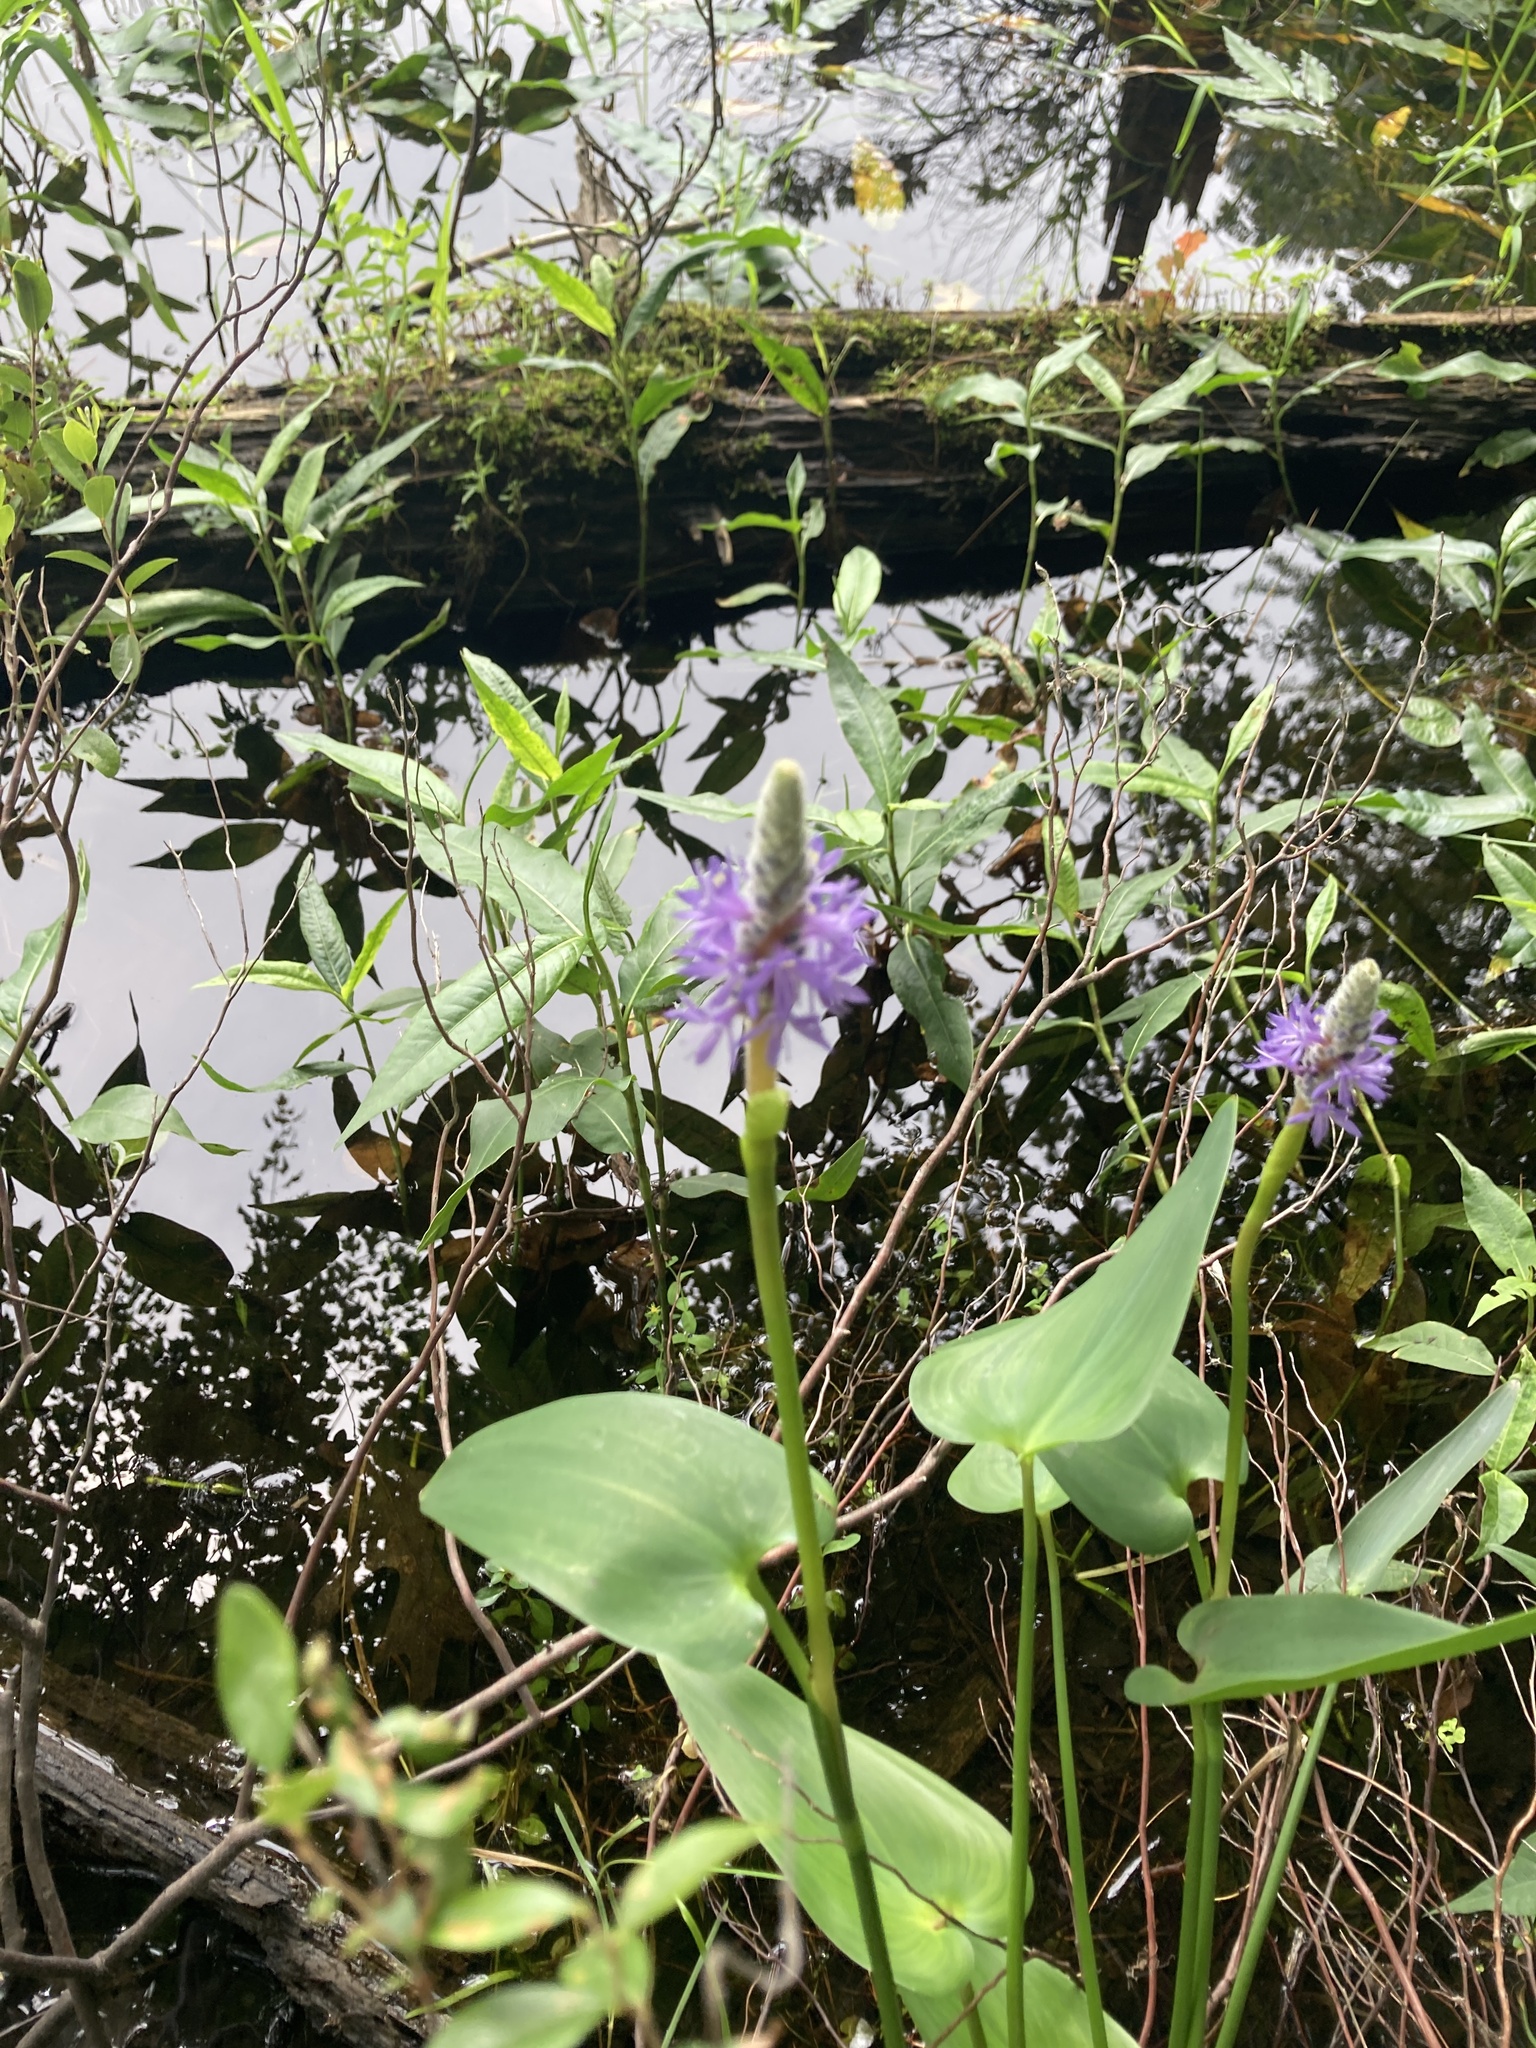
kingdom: Plantae
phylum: Tracheophyta
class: Liliopsida
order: Commelinales
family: Pontederiaceae
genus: Pontederia
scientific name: Pontederia cordata
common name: Pickerelweed
